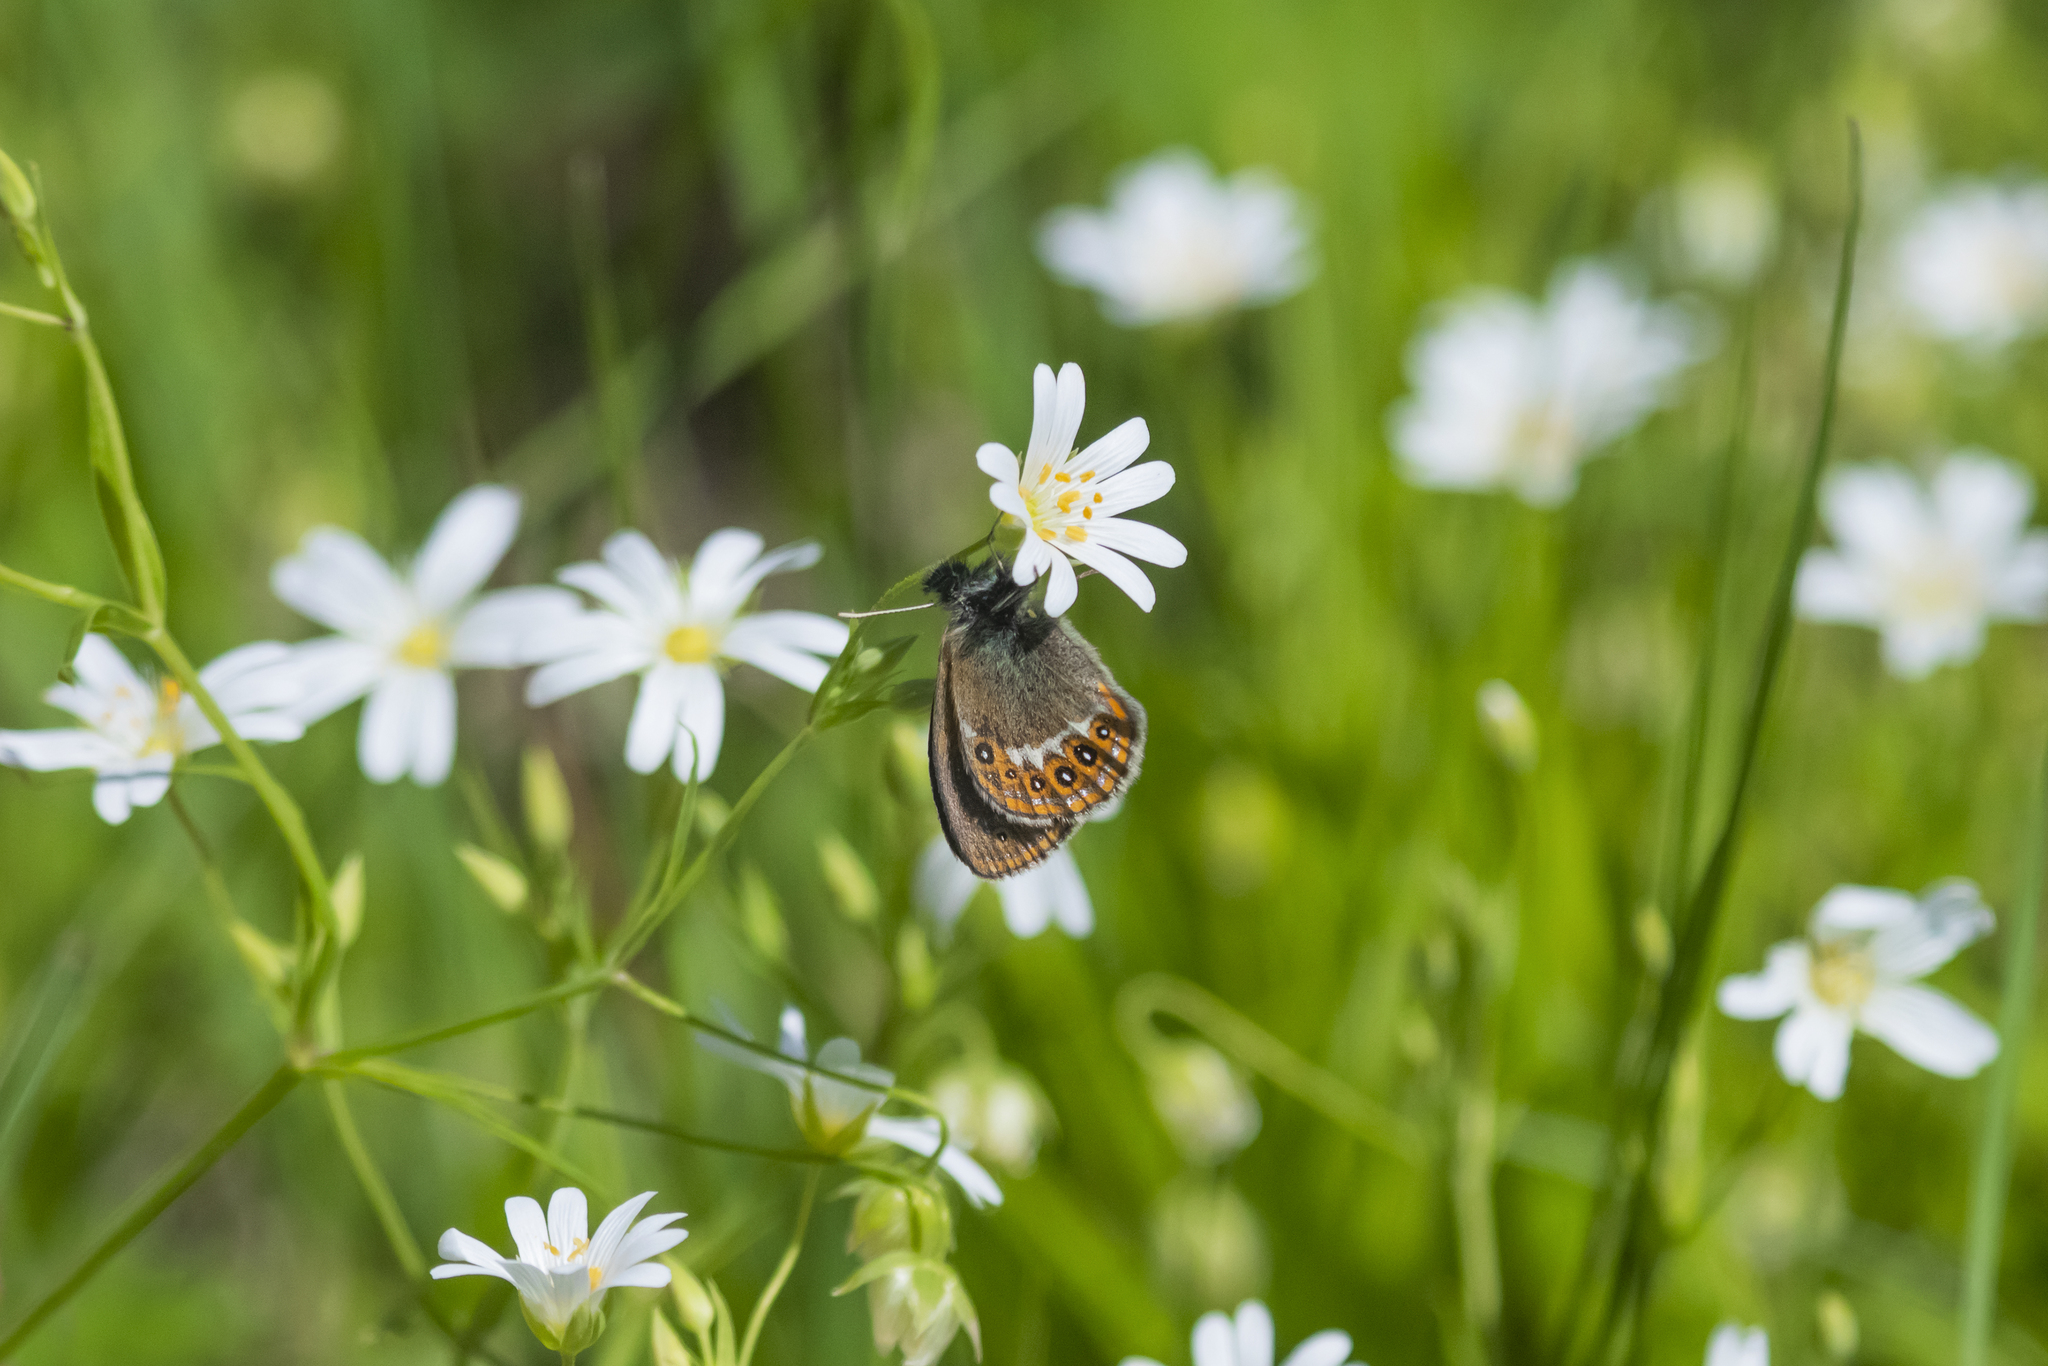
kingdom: Animalia
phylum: Arthropoda
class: Insecta
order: Lepidoptera
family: Nymphalidae
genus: Coenonympha
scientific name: Coenonympha hero
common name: Scarce heath
